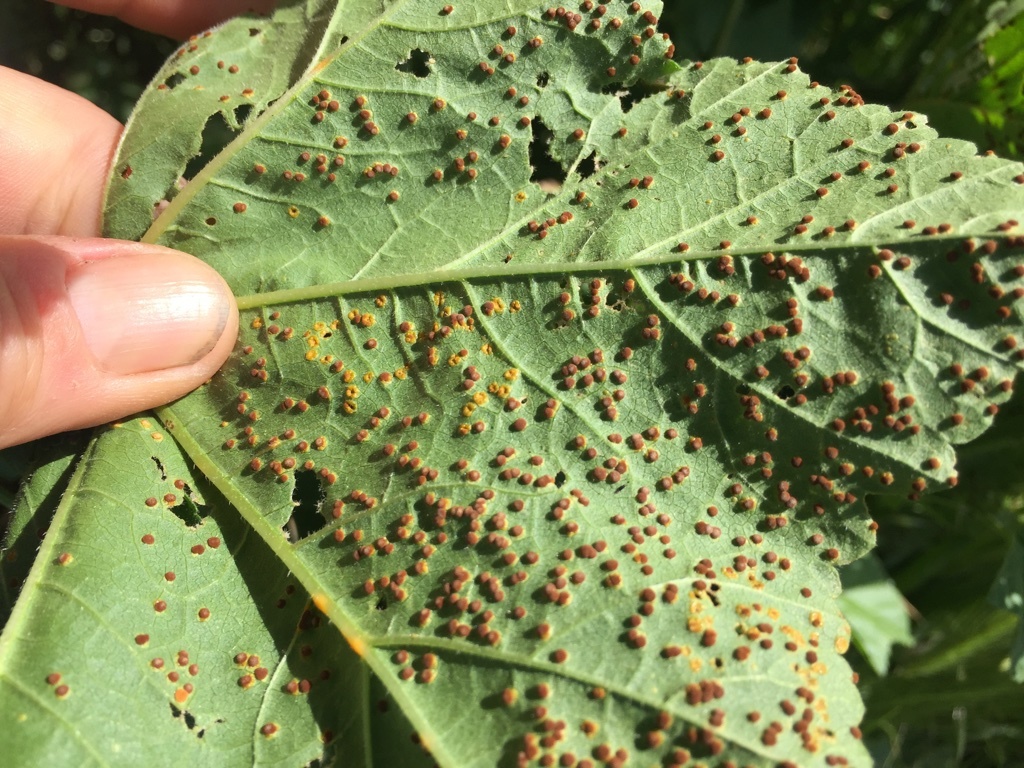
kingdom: Fungi
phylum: Basidiomycota
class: Pucciniomycetes
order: Pucciniales
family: Pucciniaceae
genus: Puccinia
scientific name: Puccinia malvacearum
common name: Hollyhock rust
